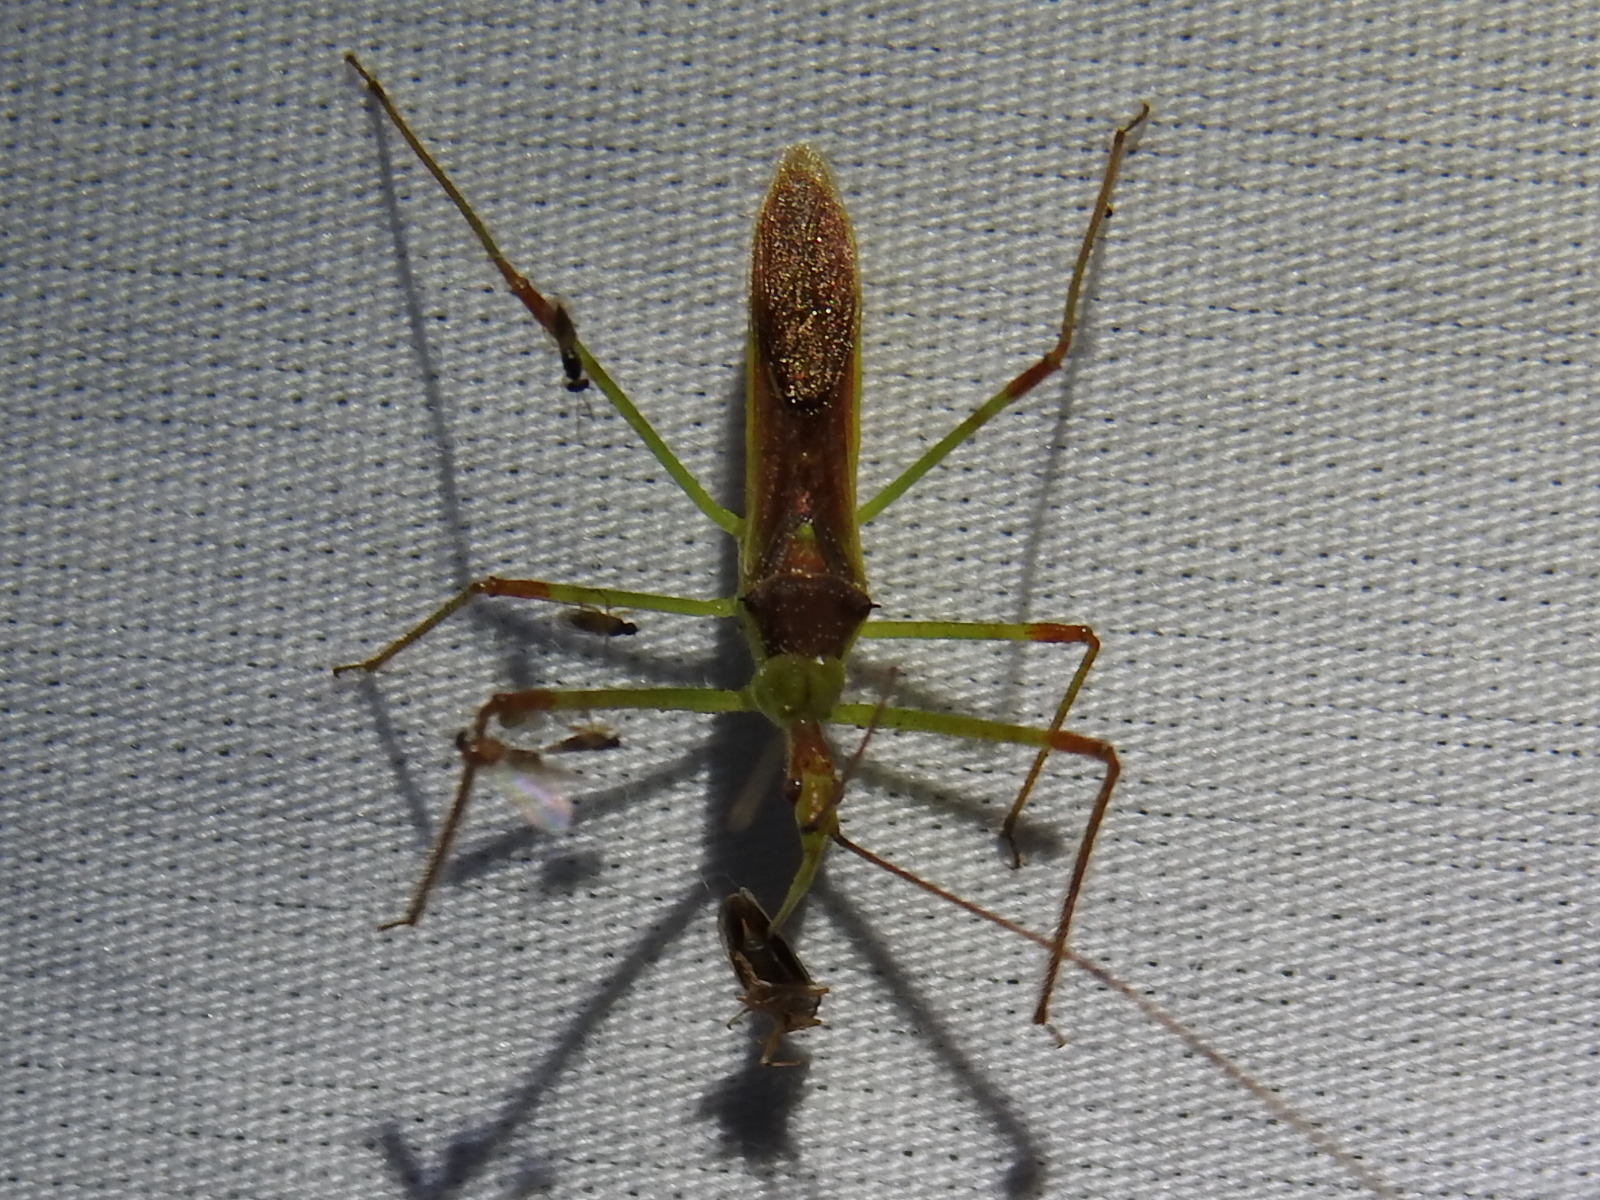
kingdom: Animalia
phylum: Arthropoda
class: Insecta
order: Hemiptera
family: Reduviidae
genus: Zelus
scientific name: Zelus luridus
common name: Pale green assassin bug
